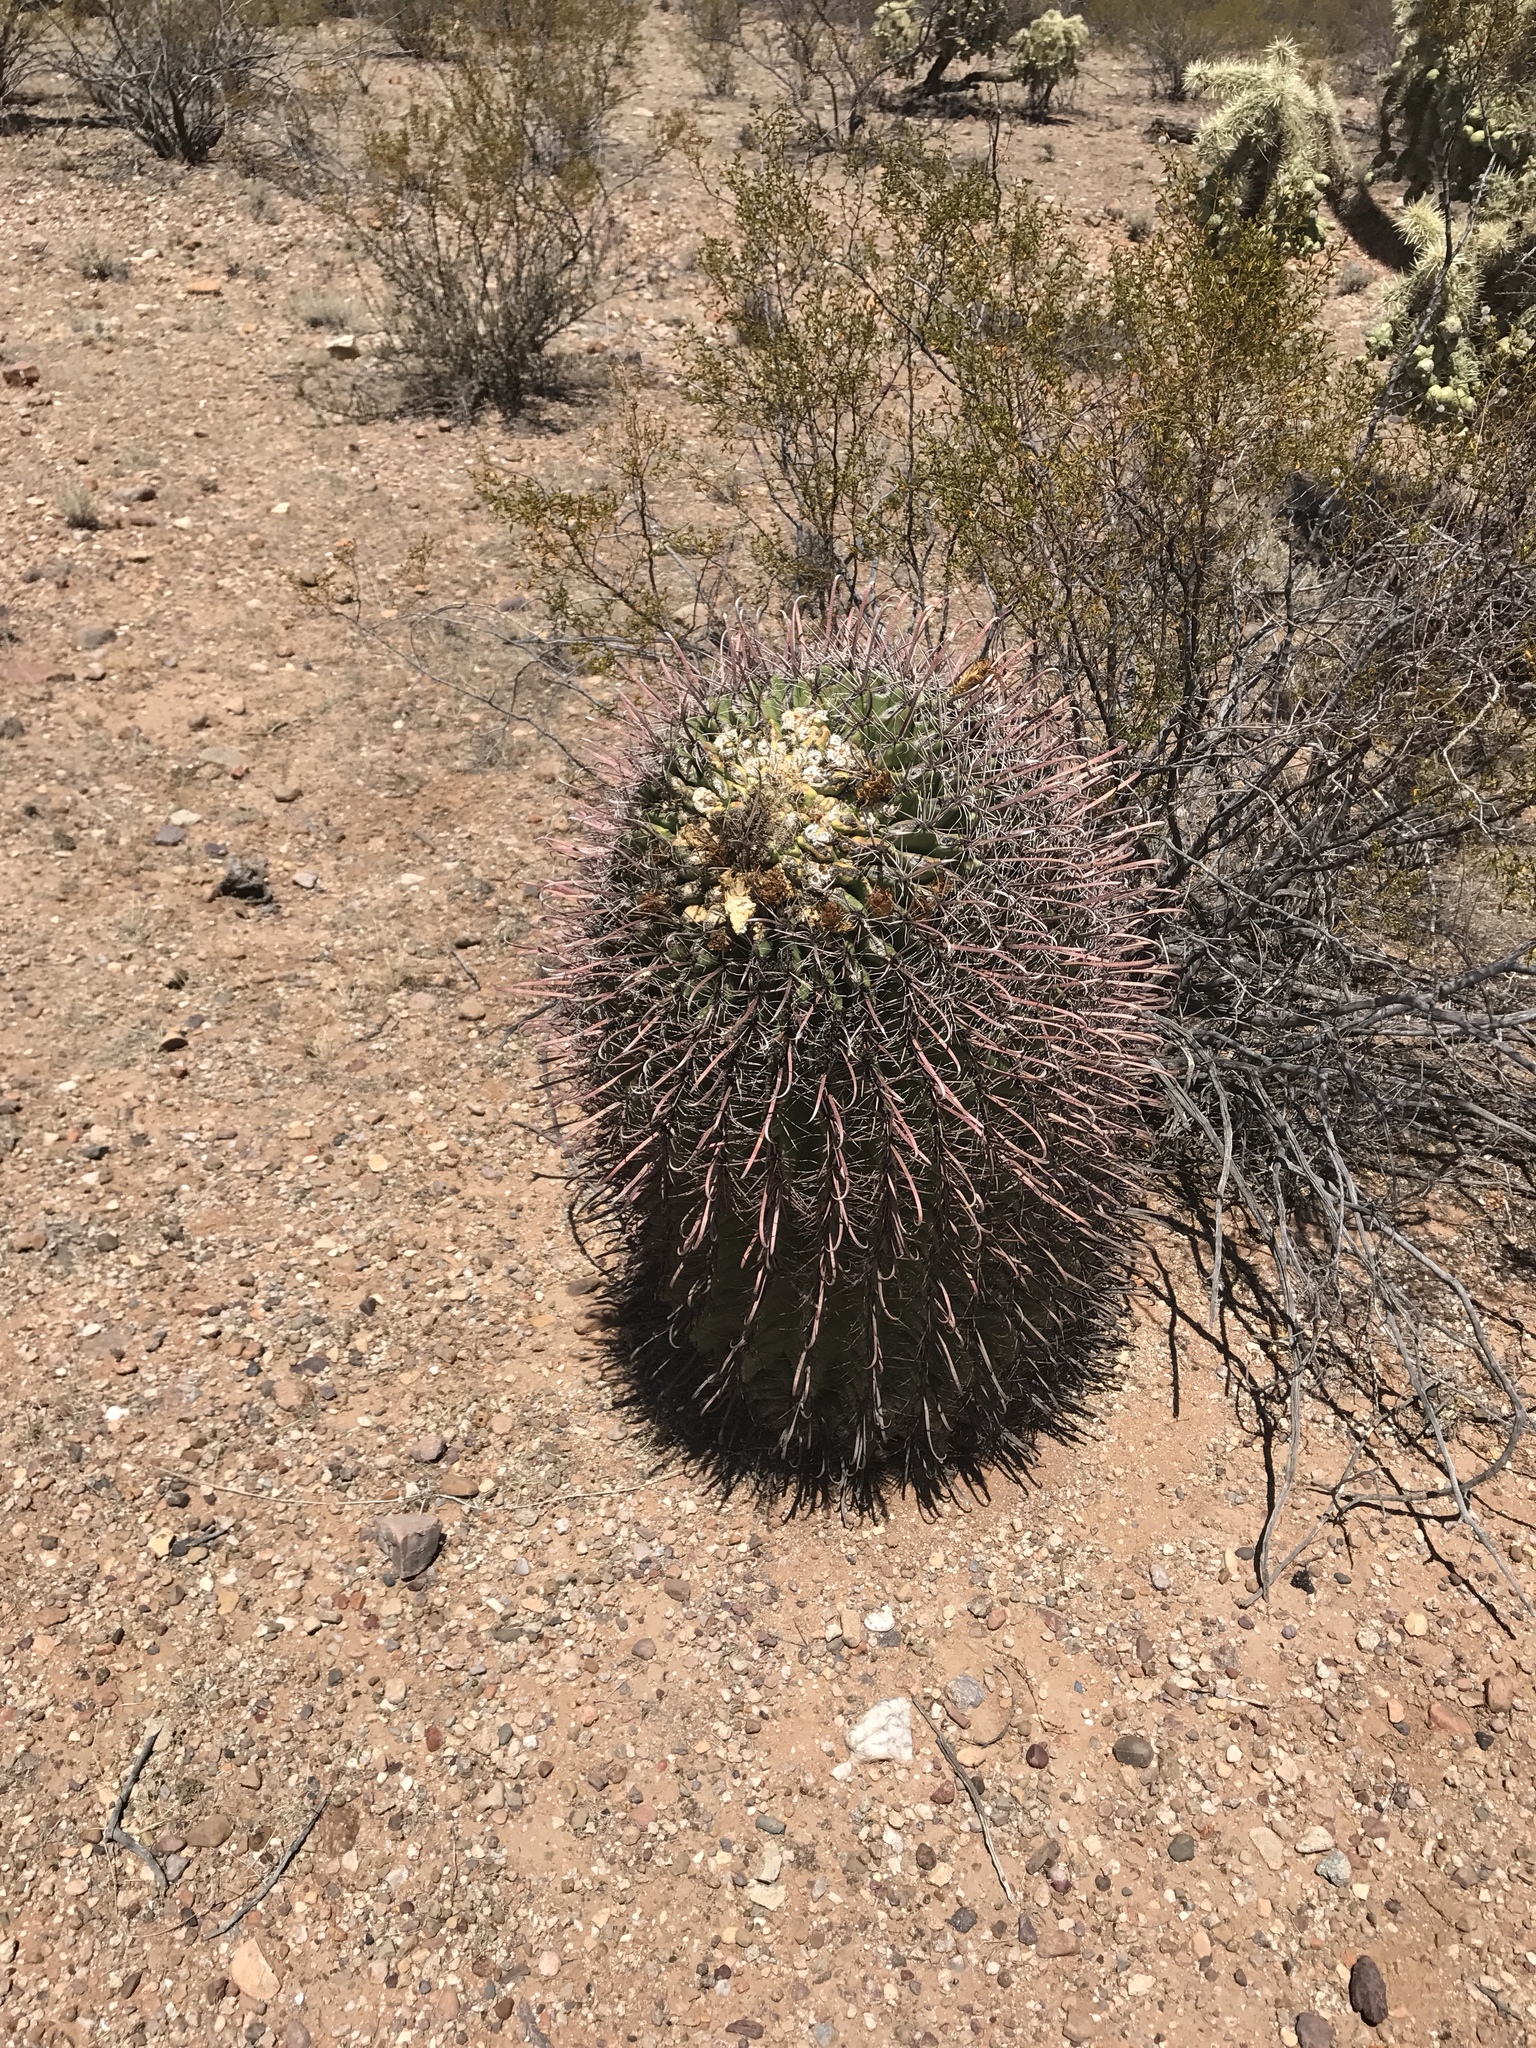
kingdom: Plantae
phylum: Tracheophyta
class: Magnoliopsida
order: Caryophyllales
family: Cactaceae
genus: Ferocactus
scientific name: Ferocactus wislizeni
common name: Candy barrel cactus
